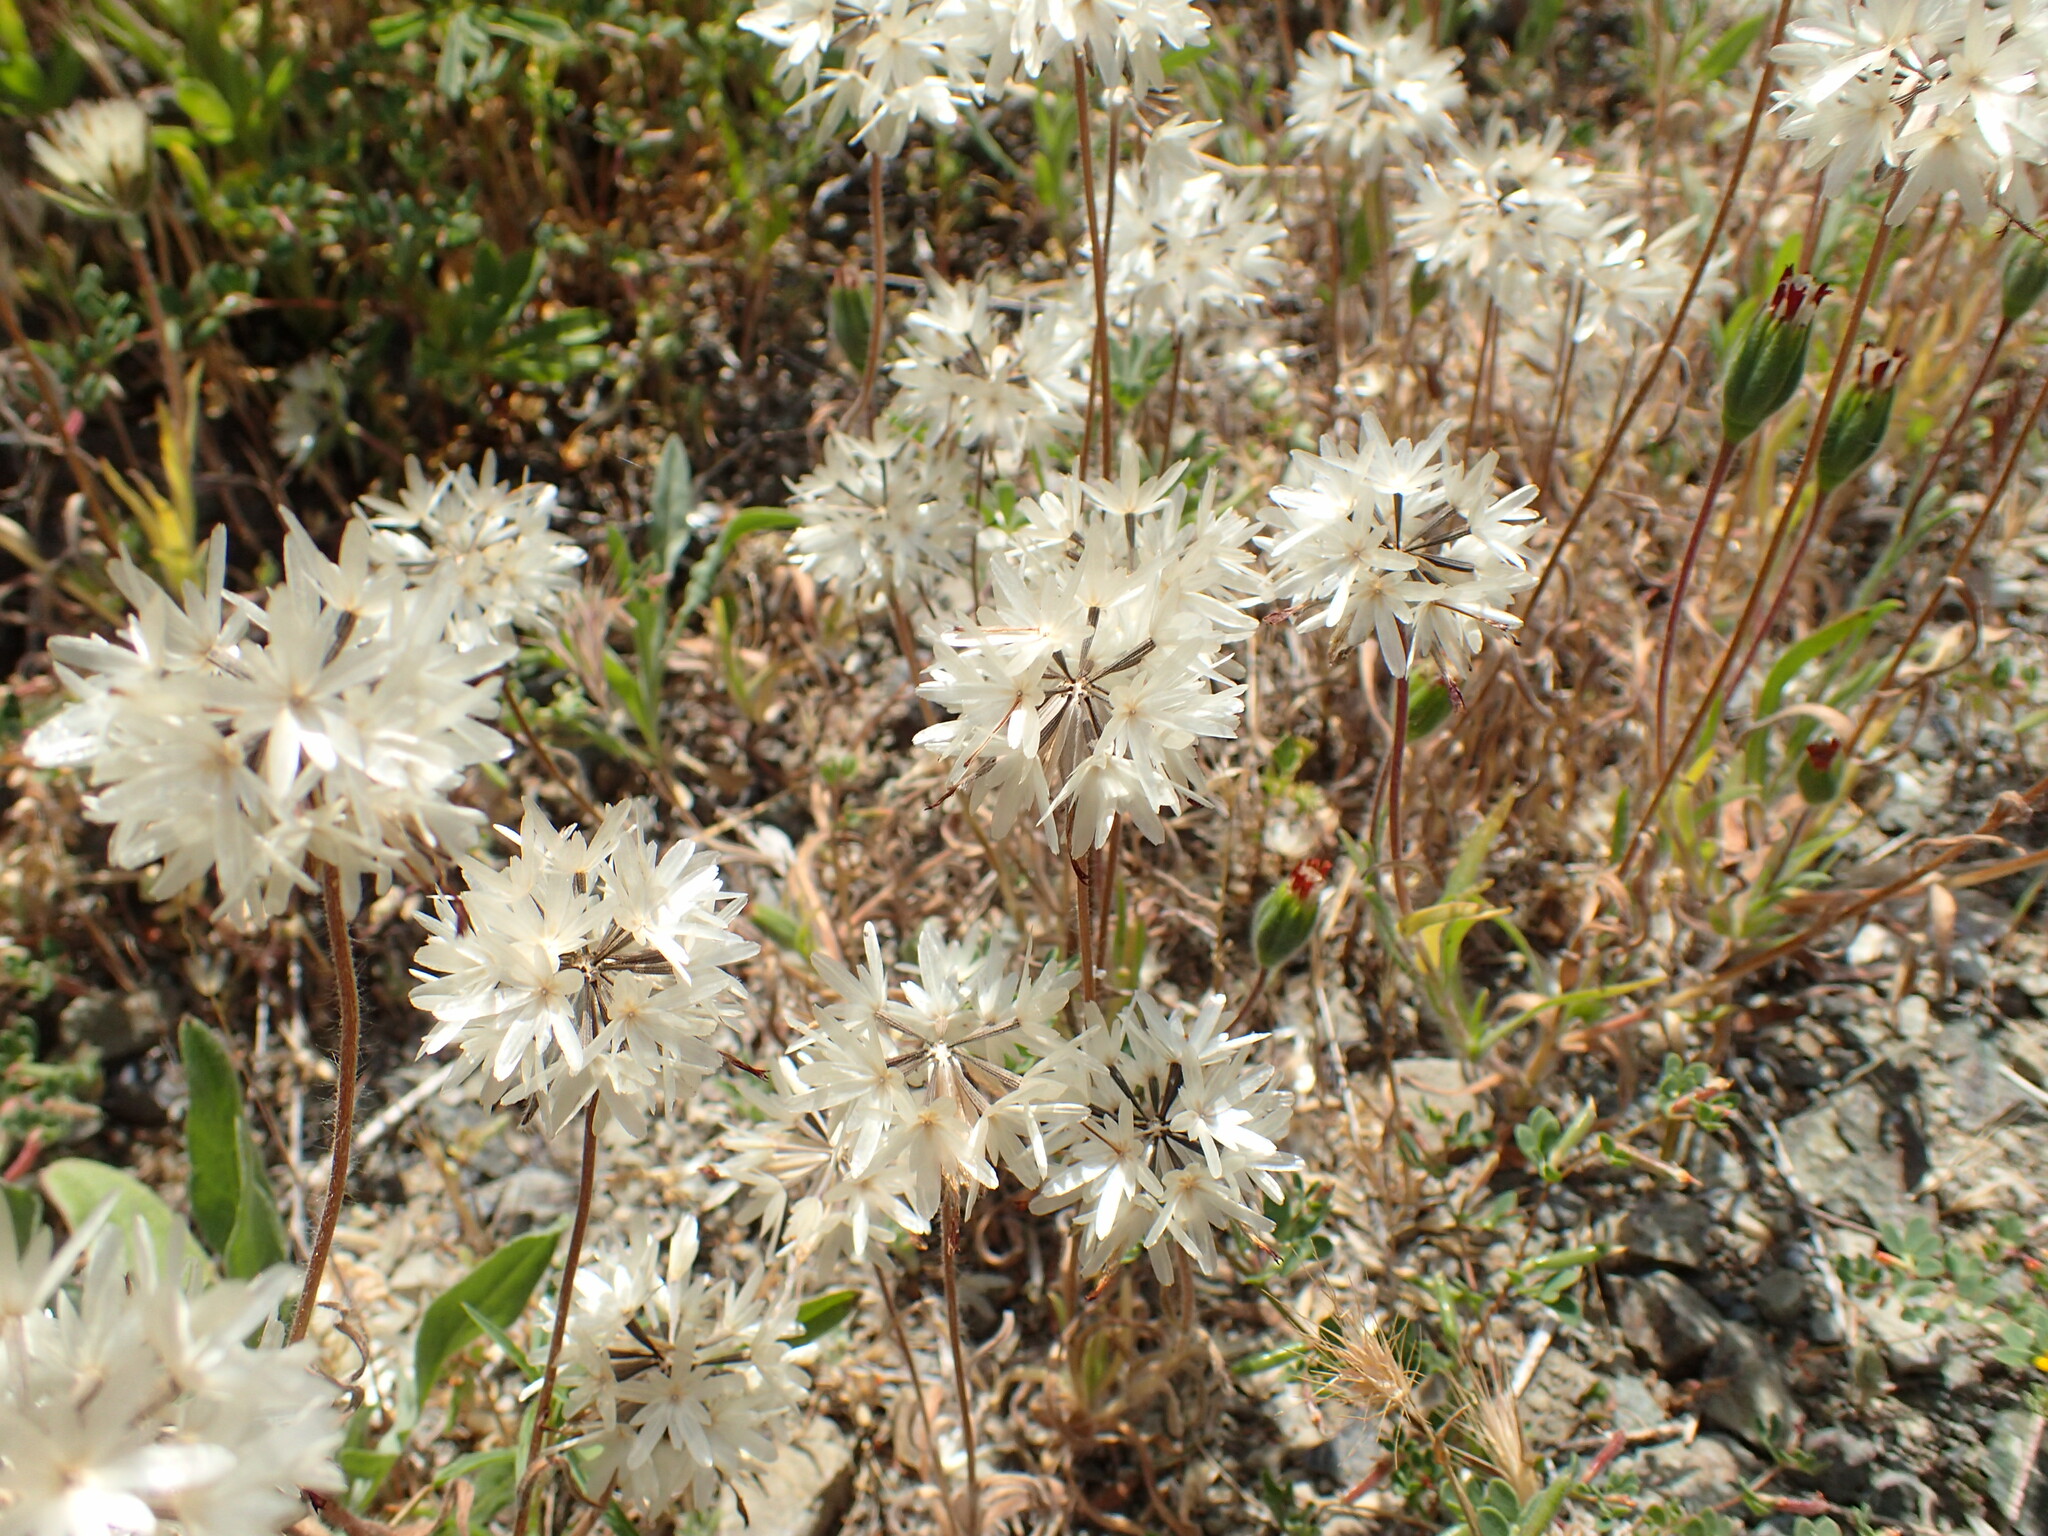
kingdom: Plantae
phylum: Tracheophyta
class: Magnoliopsida
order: Asterales
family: Asteraceae
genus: Achyrachaena
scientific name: Achyrachaena mollis
